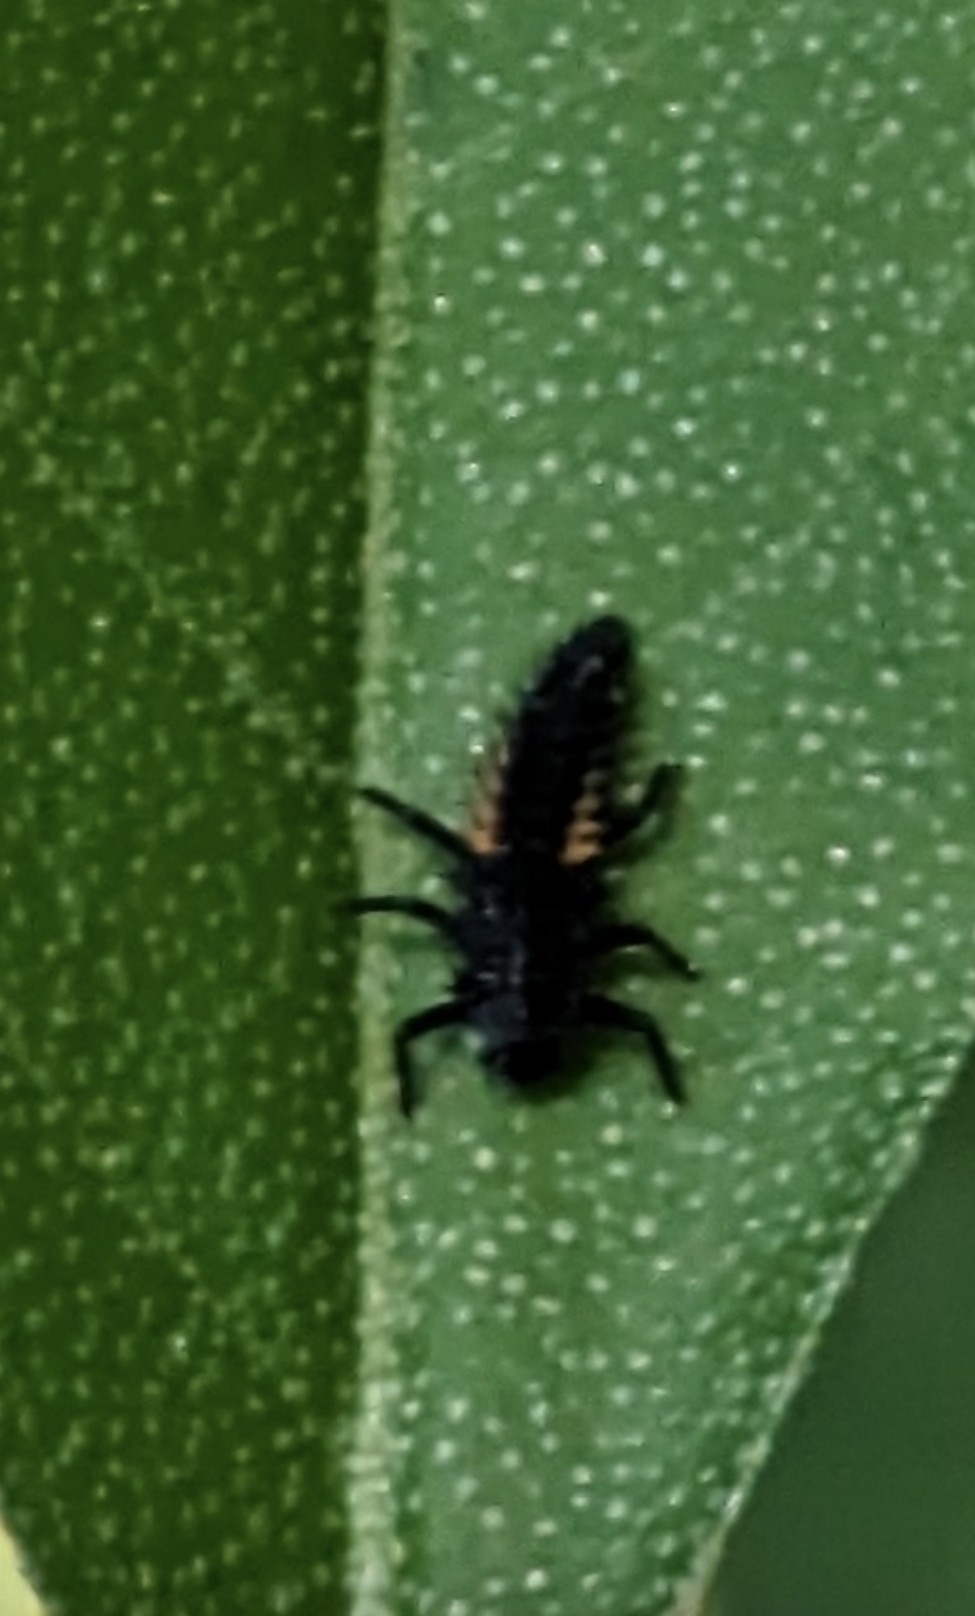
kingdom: Animalia
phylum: Arthropoda
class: Insecta
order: Coleoptera
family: Coccinellidae
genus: Harmonia
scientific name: Harmonia axyridis
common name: Harlequin ladybird
